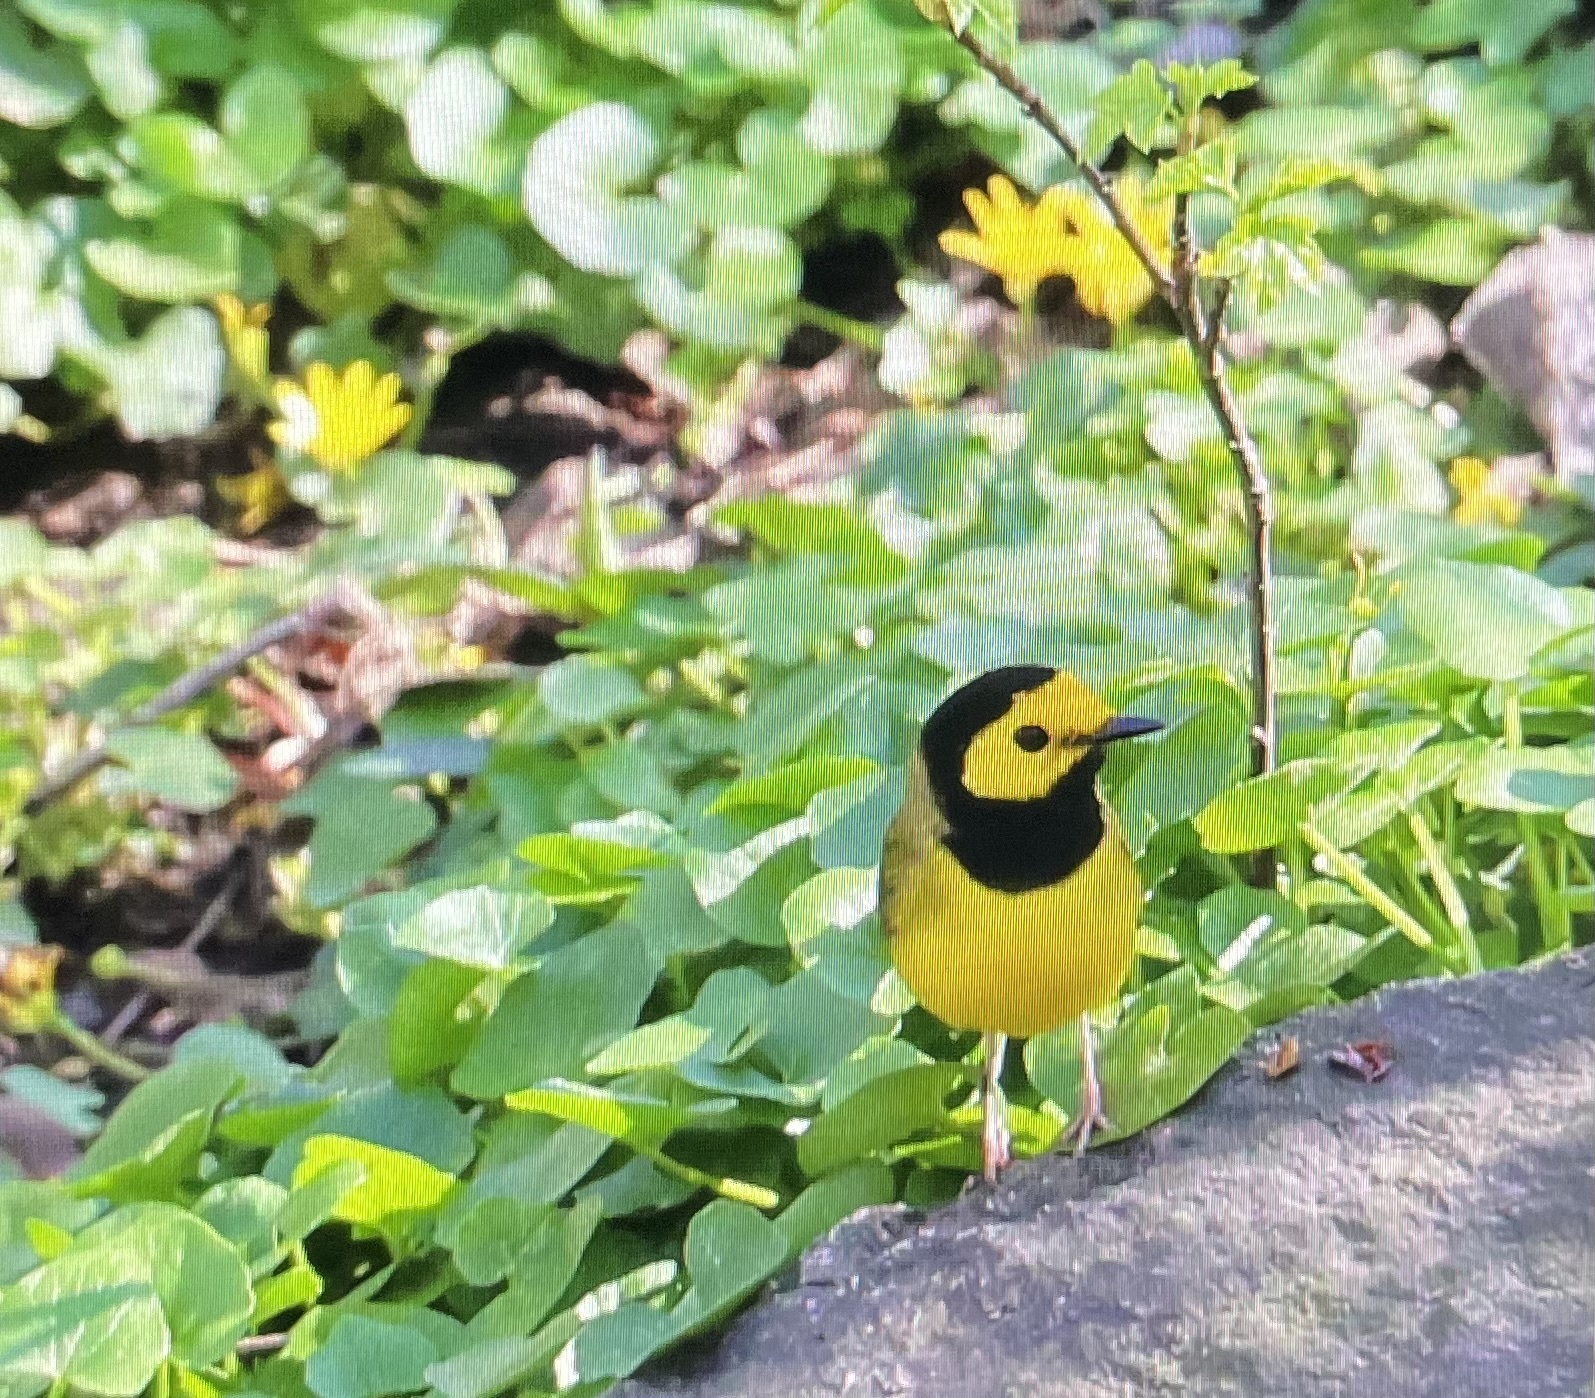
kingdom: Animalia
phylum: Chordata
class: Aves
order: Passeriformes
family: Parulidae
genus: Setophaga
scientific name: Setophaga citrina
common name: Hooded warbler
